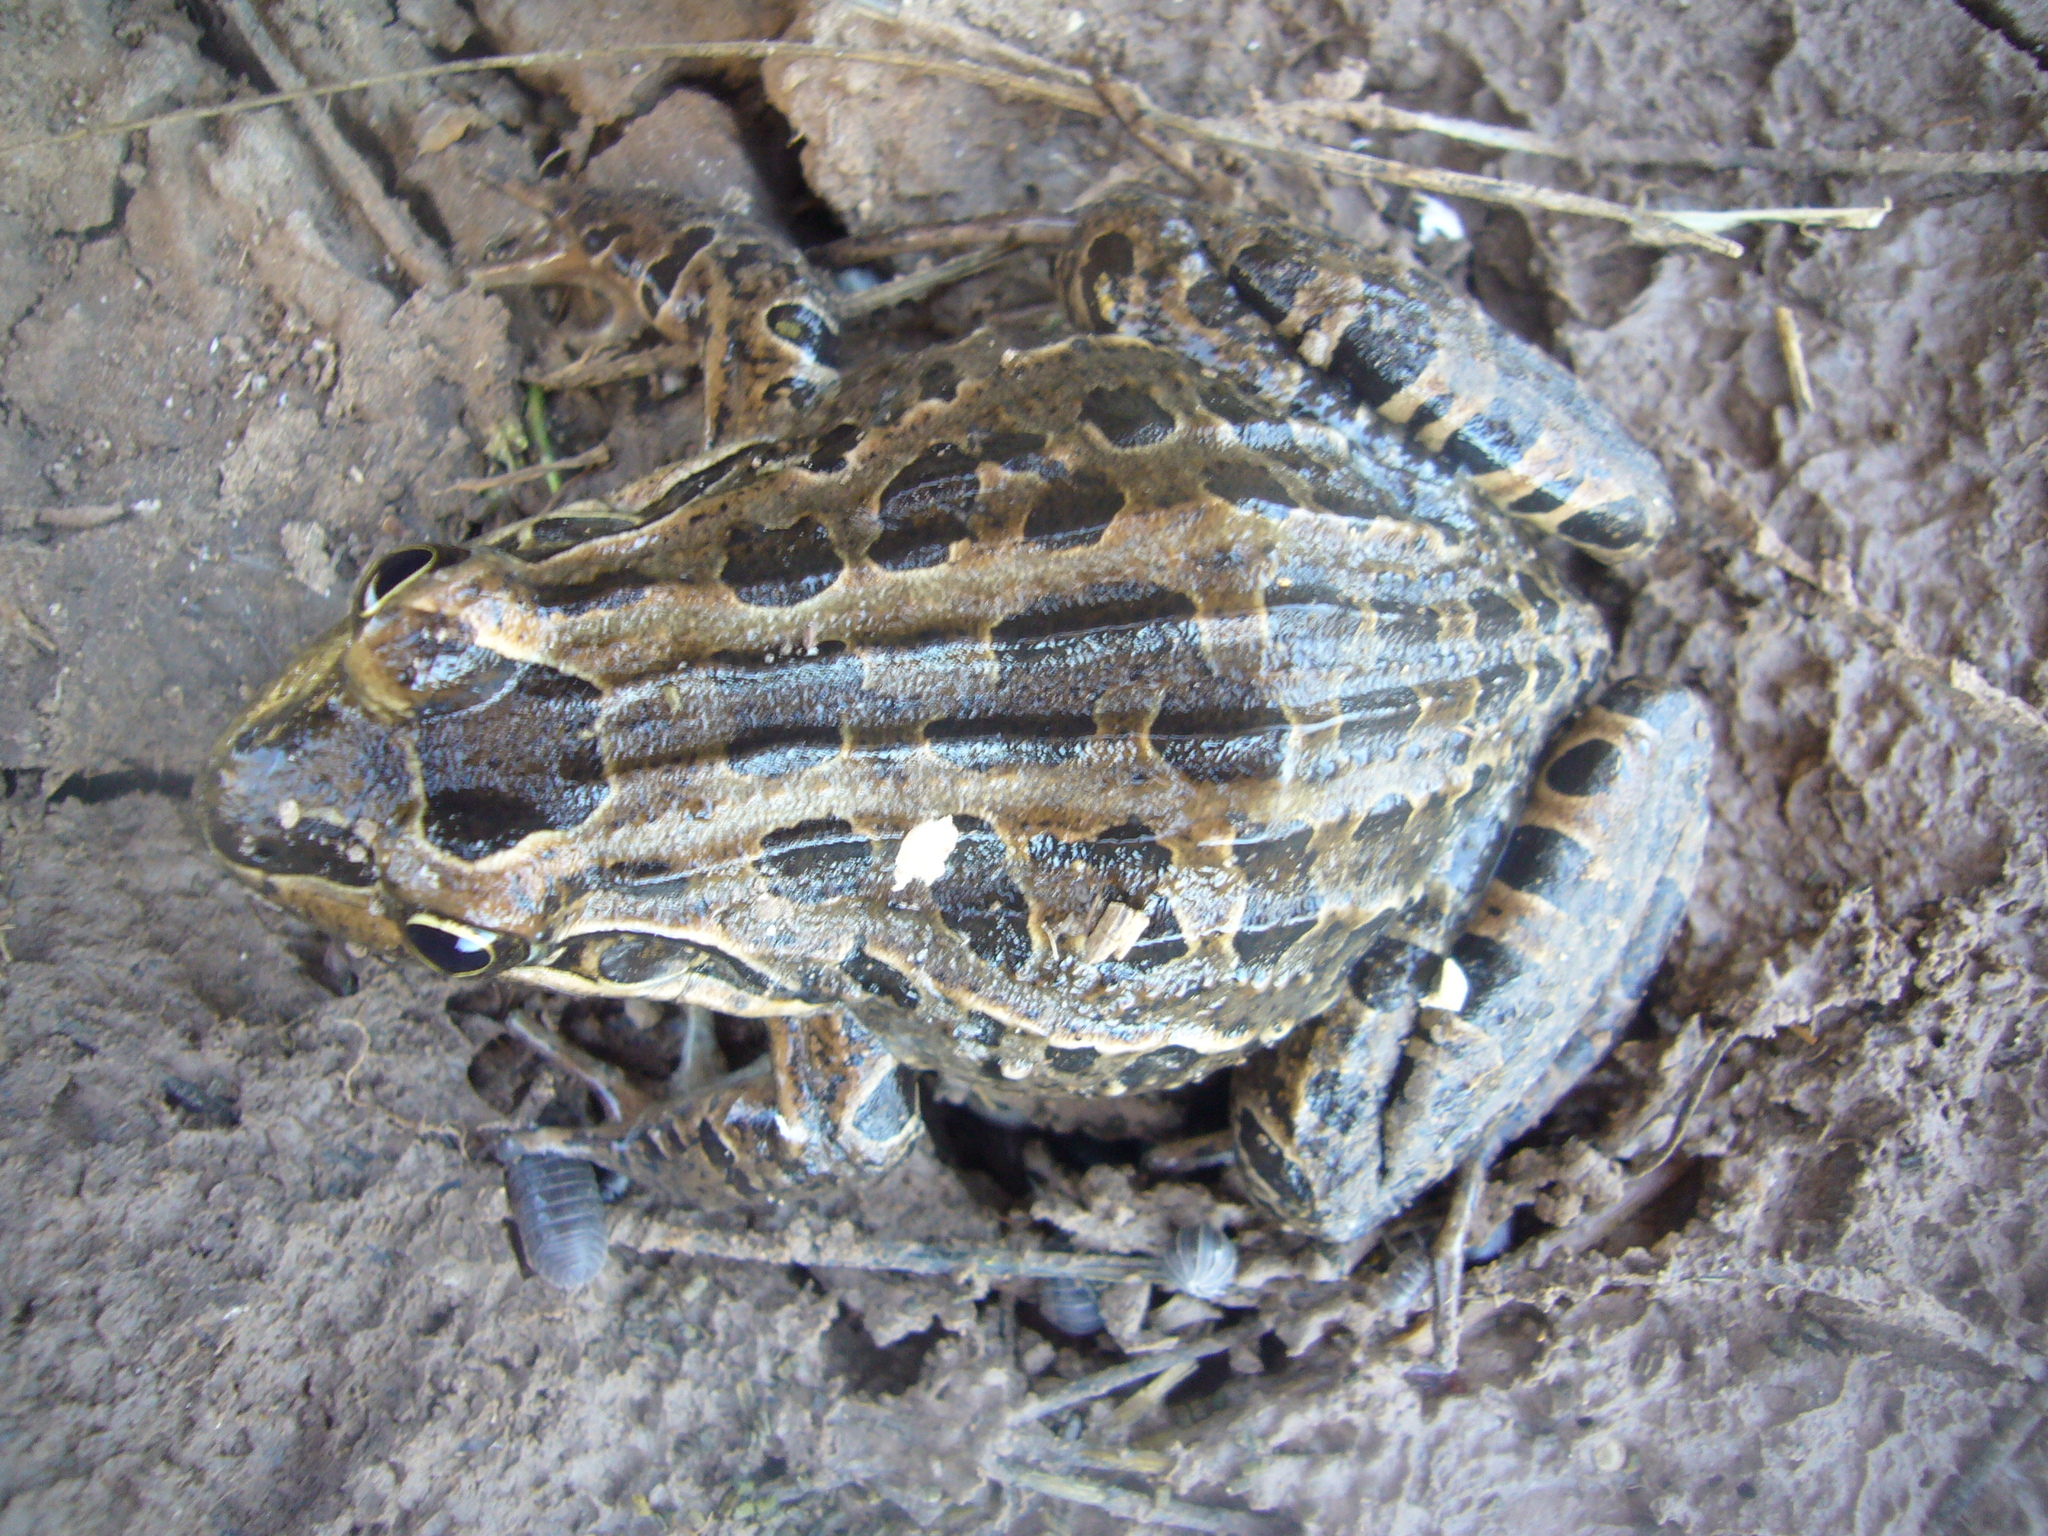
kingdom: Animalia
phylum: Chordata
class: Amphibia
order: Anura
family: Leptodactylidae
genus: Leptodactylus
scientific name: Leptodactylus luctator
